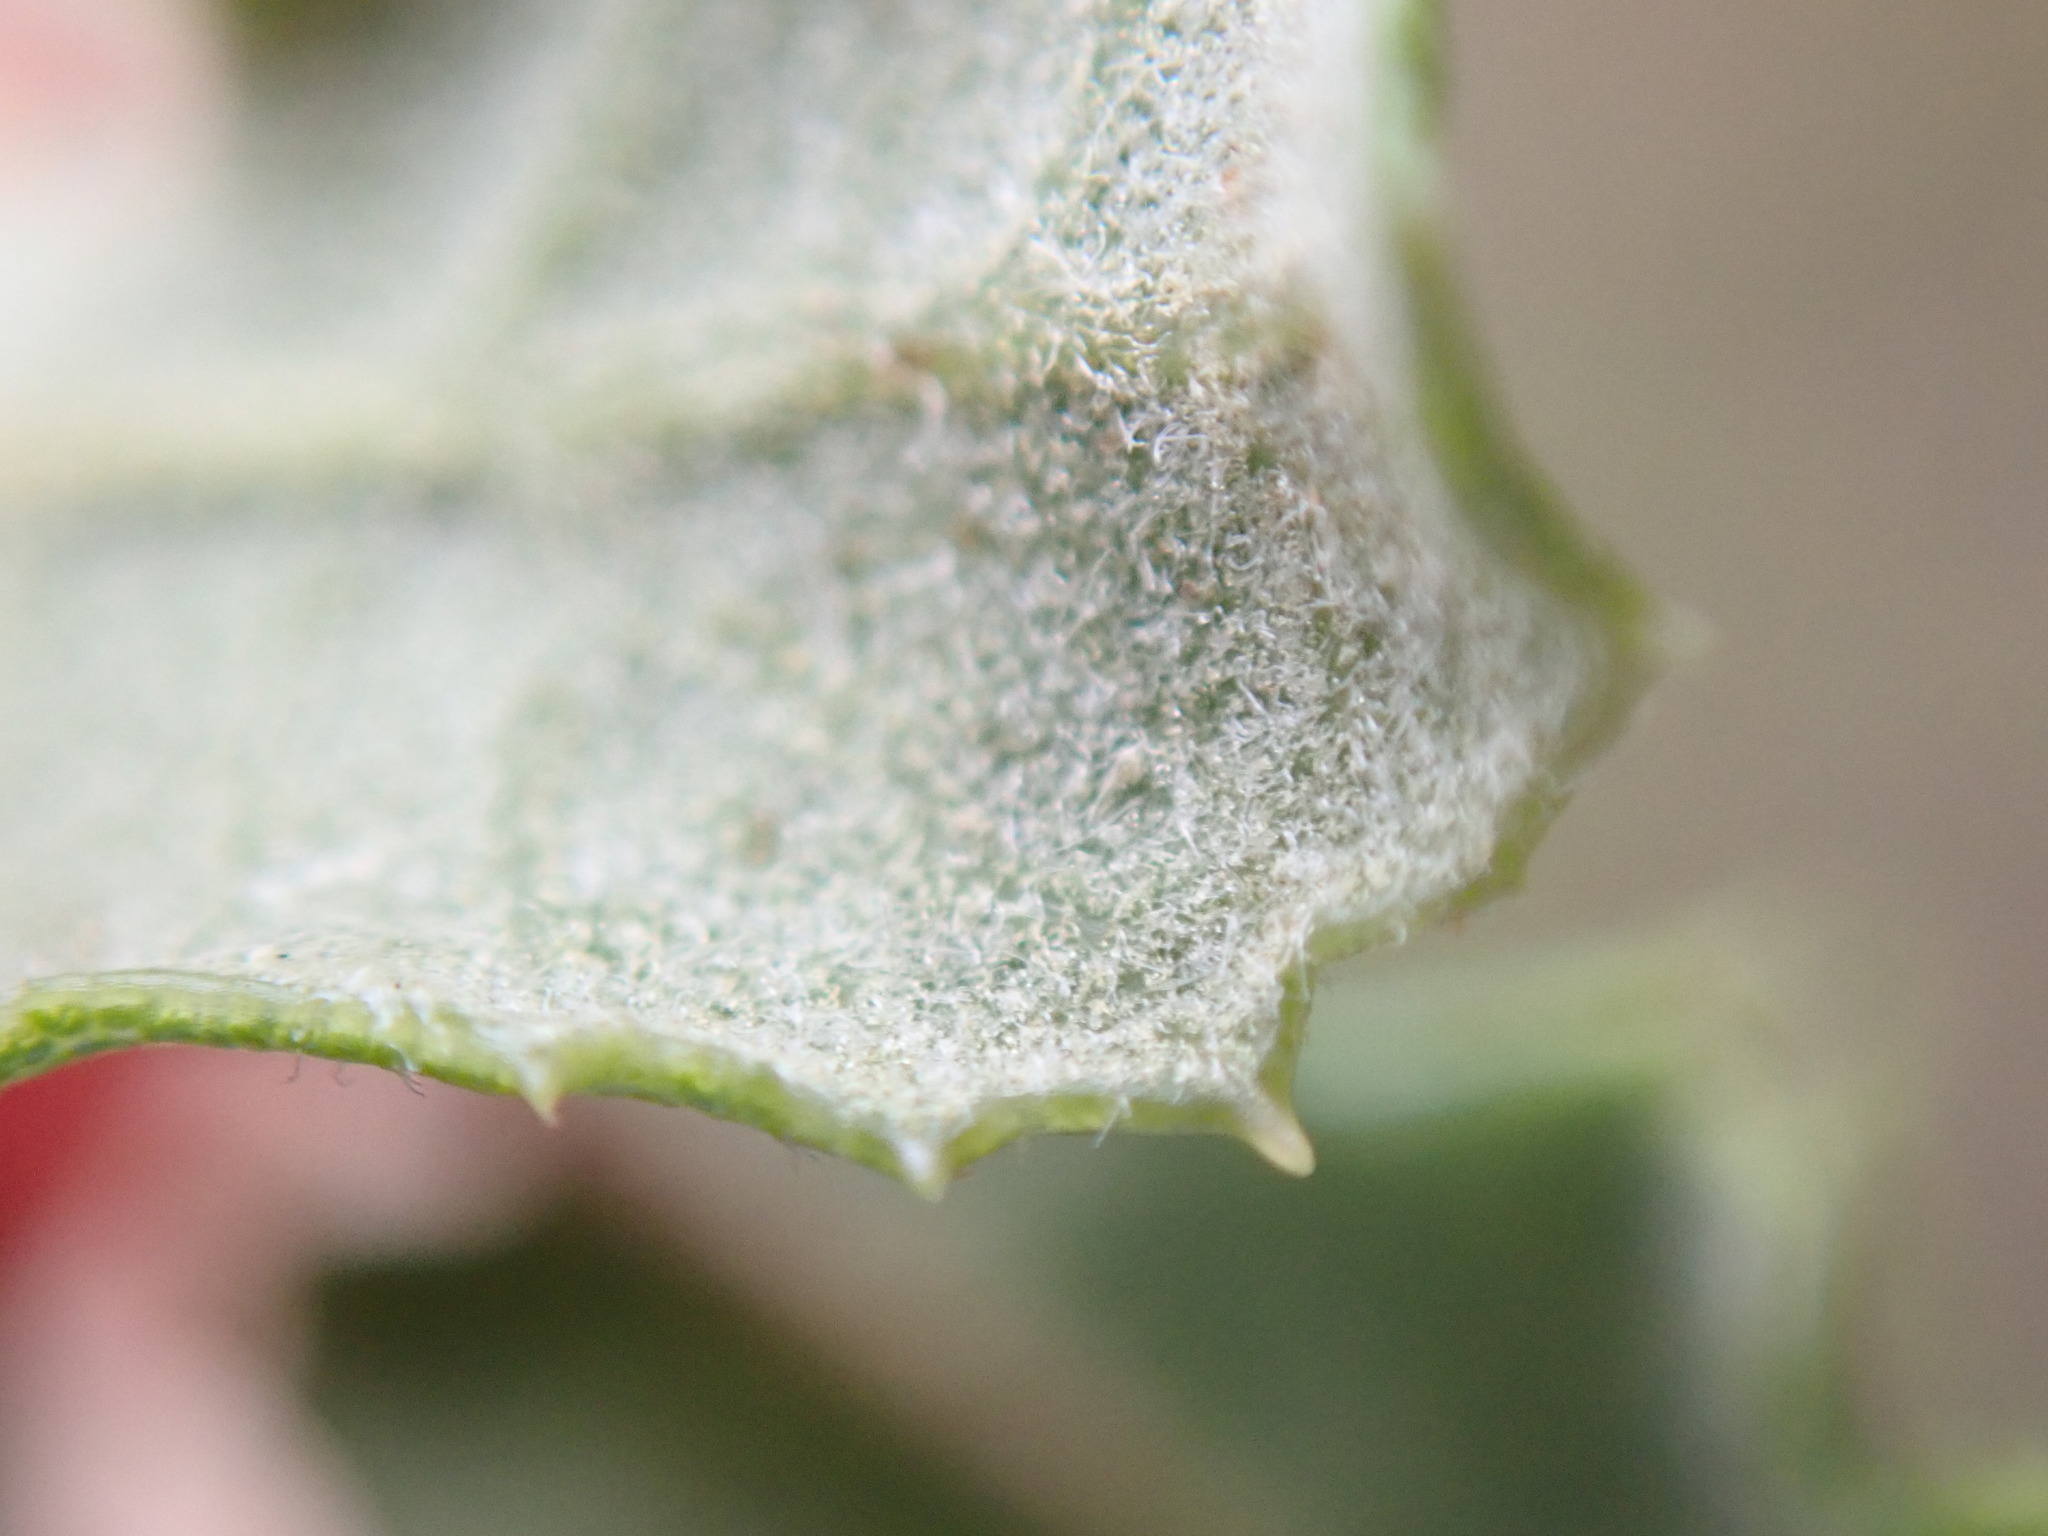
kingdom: Plantae
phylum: Tracheophyta
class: Magnoliopsida
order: Fagales
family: Fagaceae
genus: Quercus
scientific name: Quercus dumosa
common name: Coastal sage scrub oak
